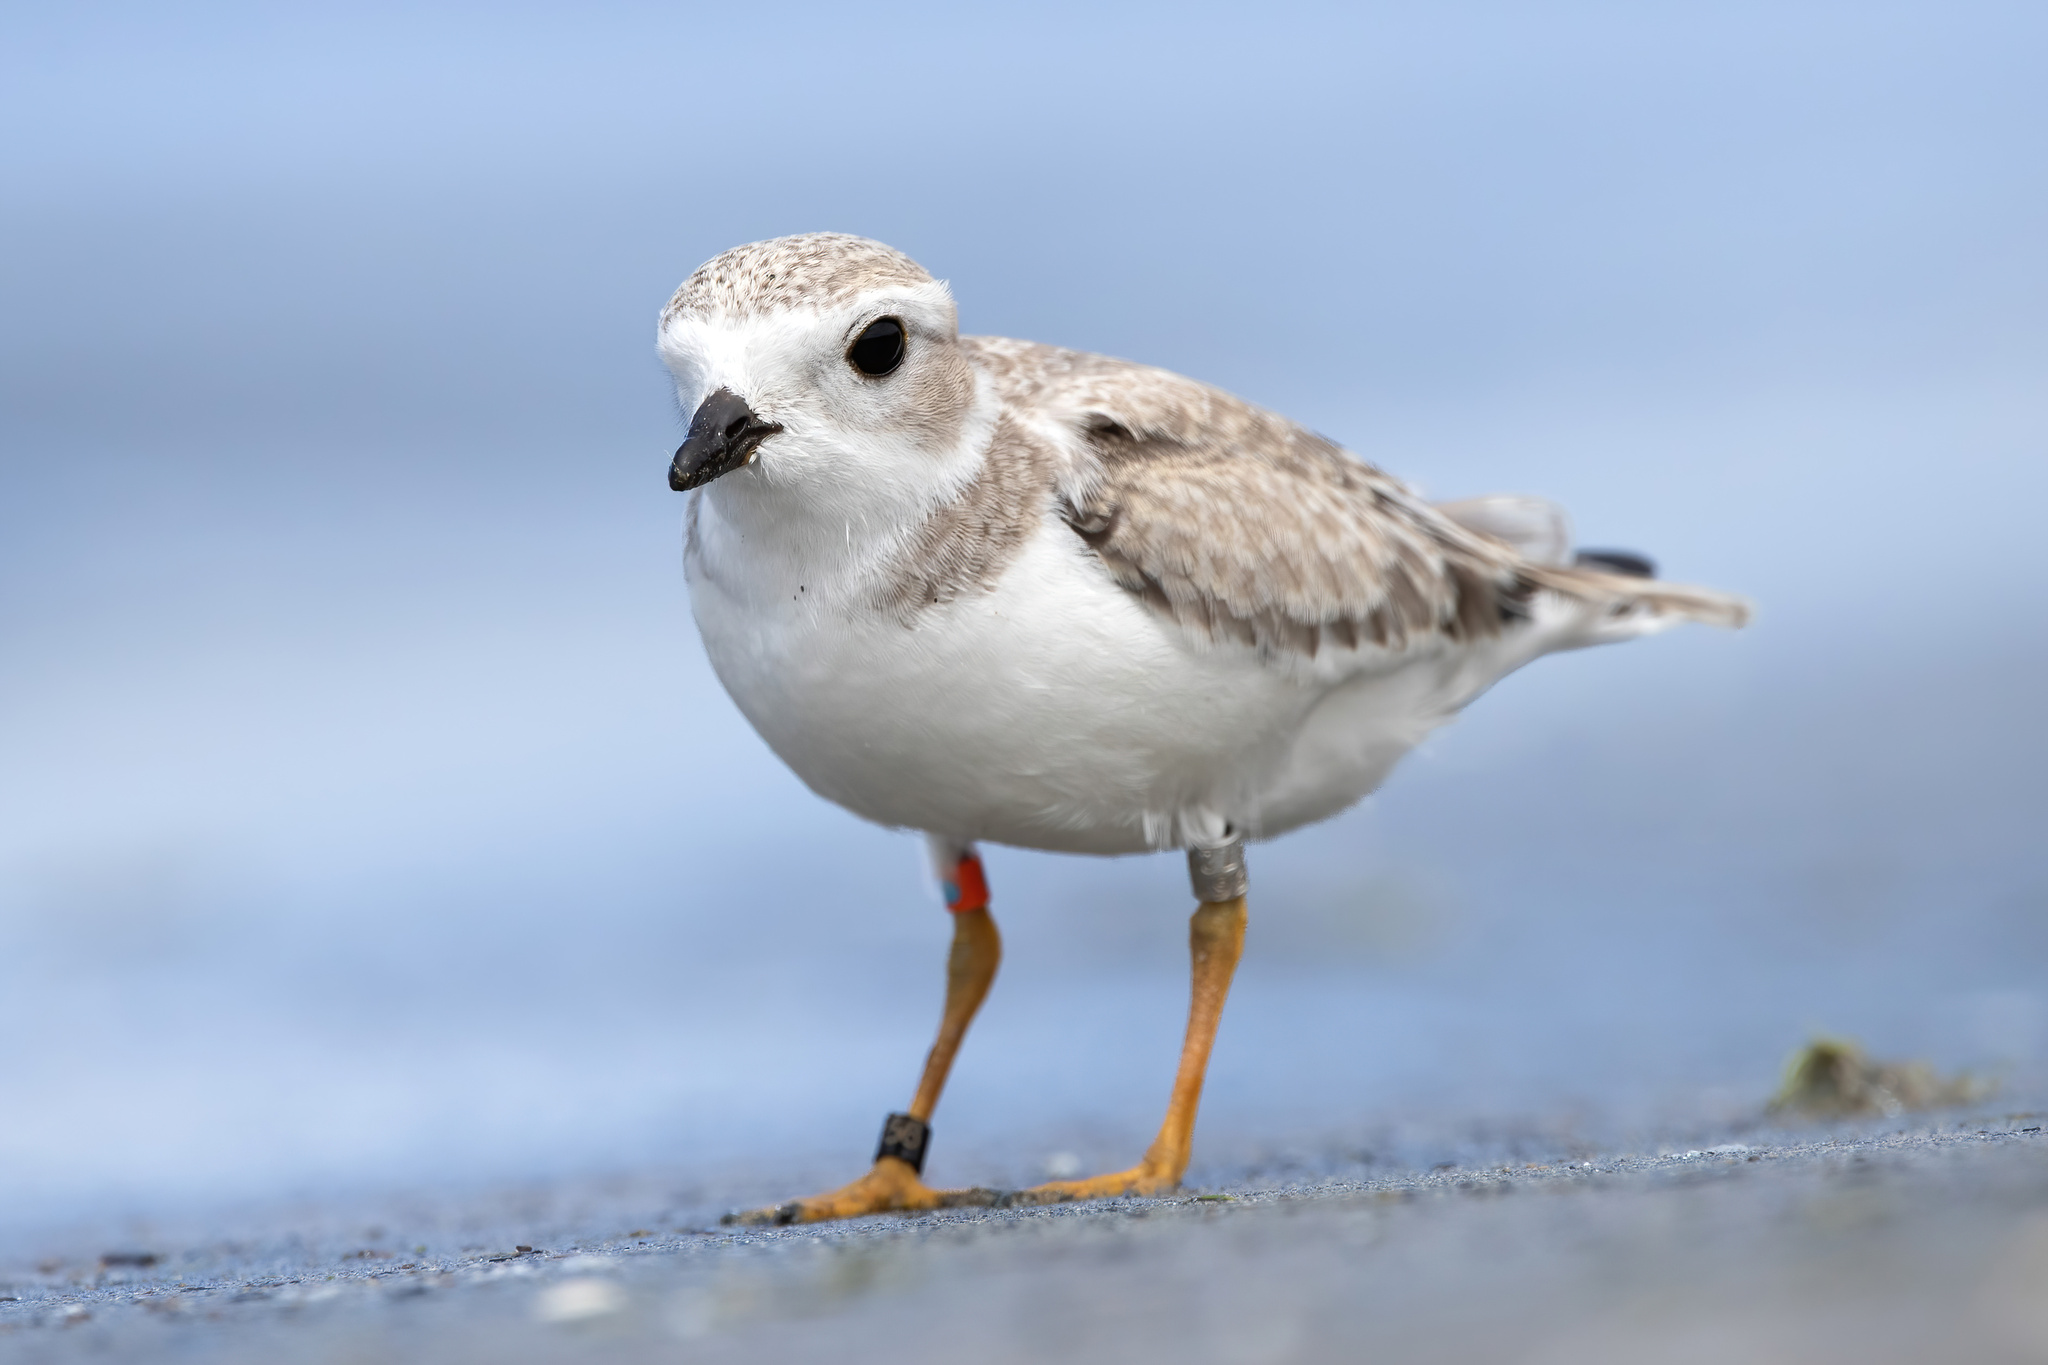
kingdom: Animalia
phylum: Chordata
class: Aves
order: Charadriiformes
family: Charadriidae
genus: Charadrius
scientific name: Charadrius melodus
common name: Piping plover
